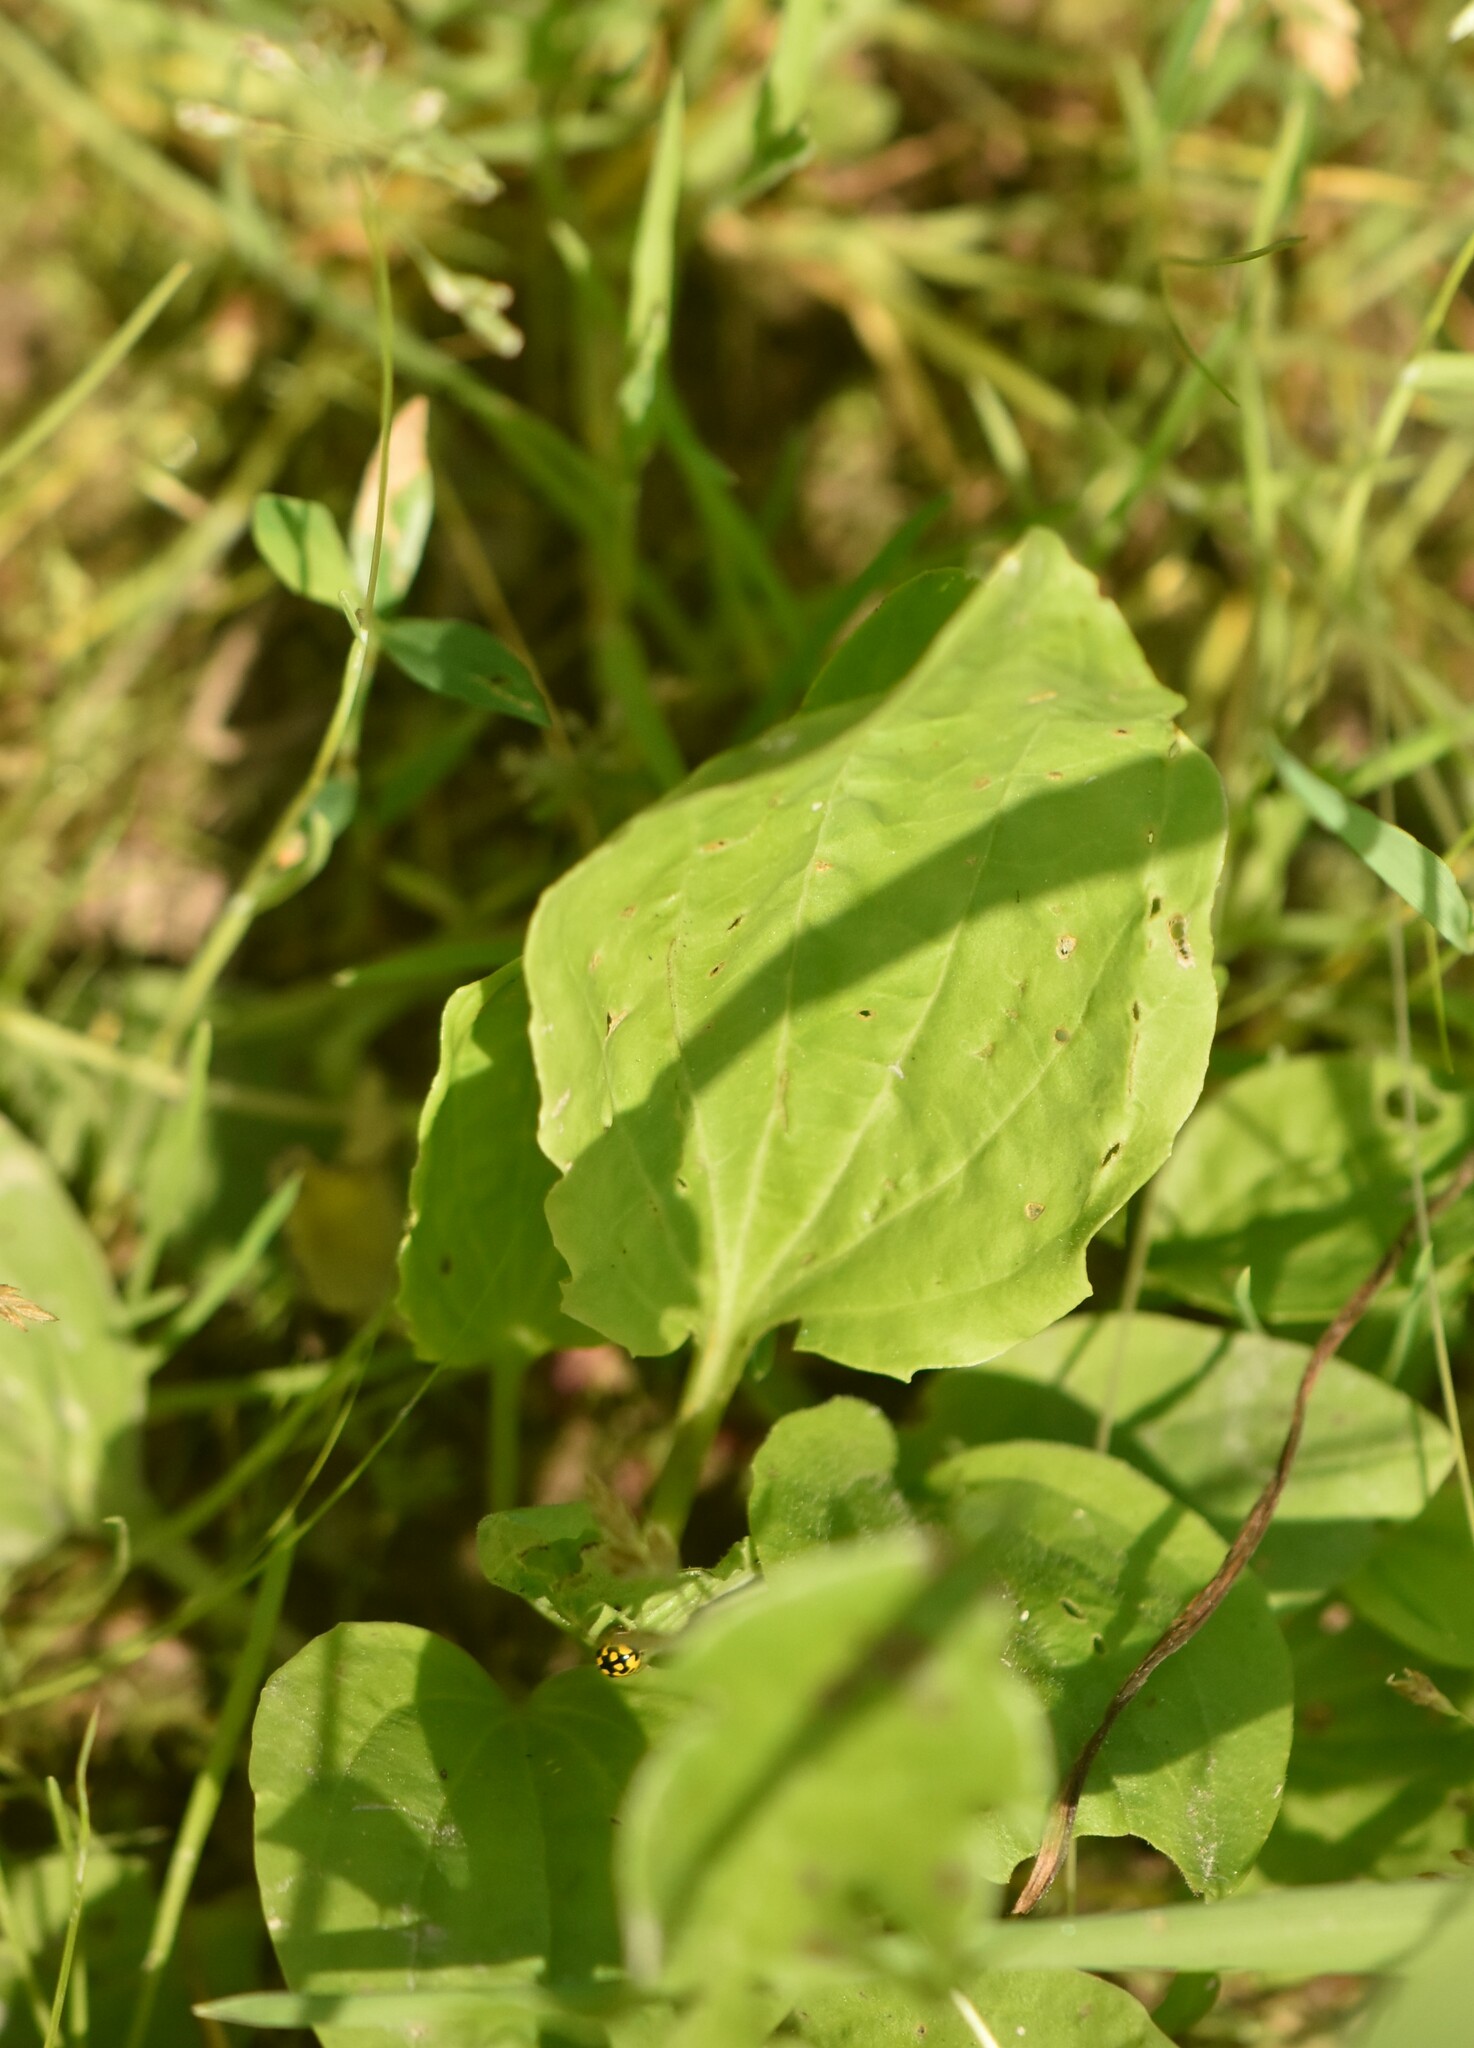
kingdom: Plantae
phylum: Tracheophyta
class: Magnoliopsida
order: Lamiales
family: Plantaginaceae
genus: Plantago
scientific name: Plantago major
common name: Common plantain
